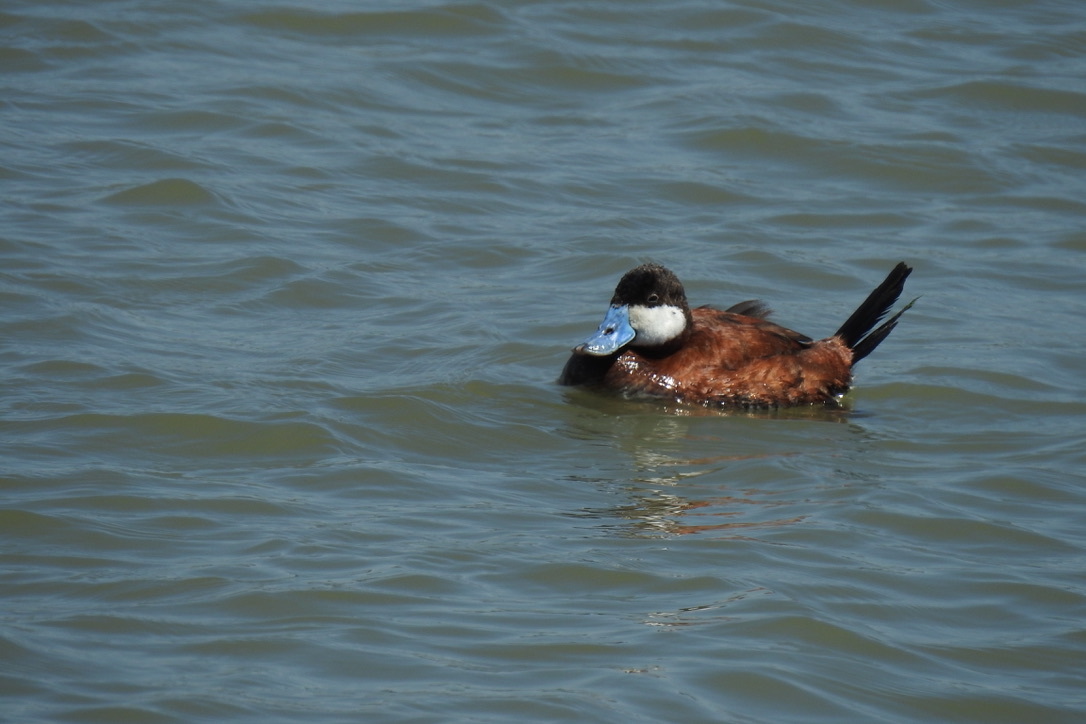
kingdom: Animalia
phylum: Chordata
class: Aves
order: Anseriformes
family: Anatidae
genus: Oxyura
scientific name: Oxyura jamaicensis
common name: Ruddy duck
